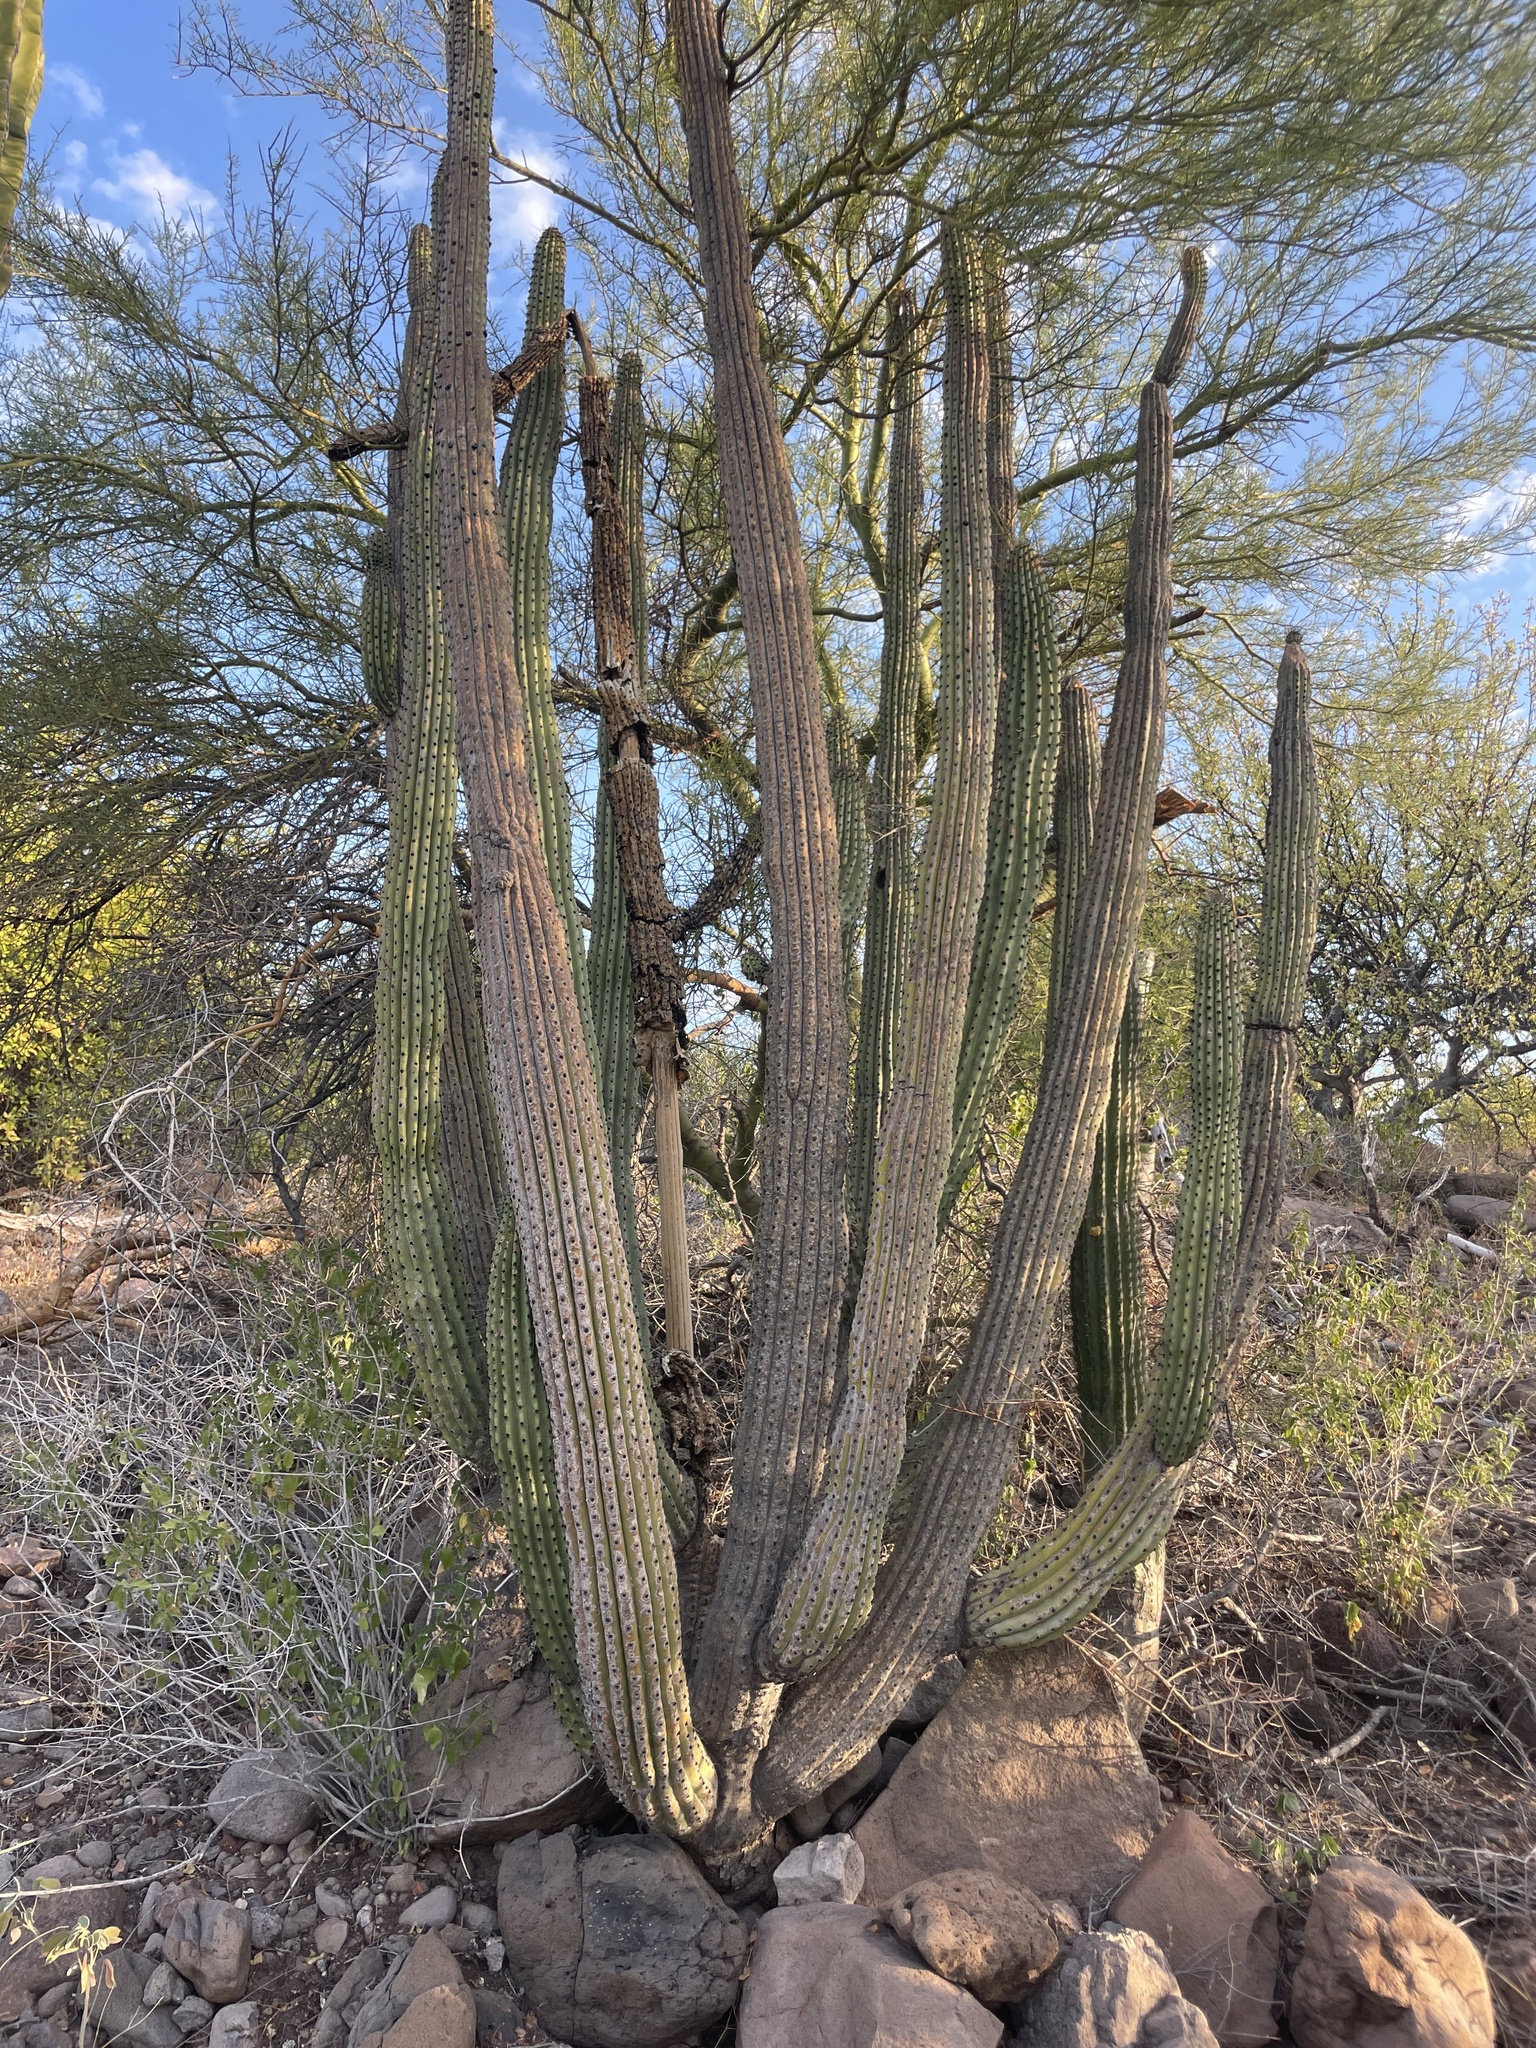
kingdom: Plantae
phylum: Tracheophyta
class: Magnoliopsida
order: Caryophyllales
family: Cactaceae
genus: Stenocereus
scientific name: Stenocereus thurberi
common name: Organ pipe cactus
